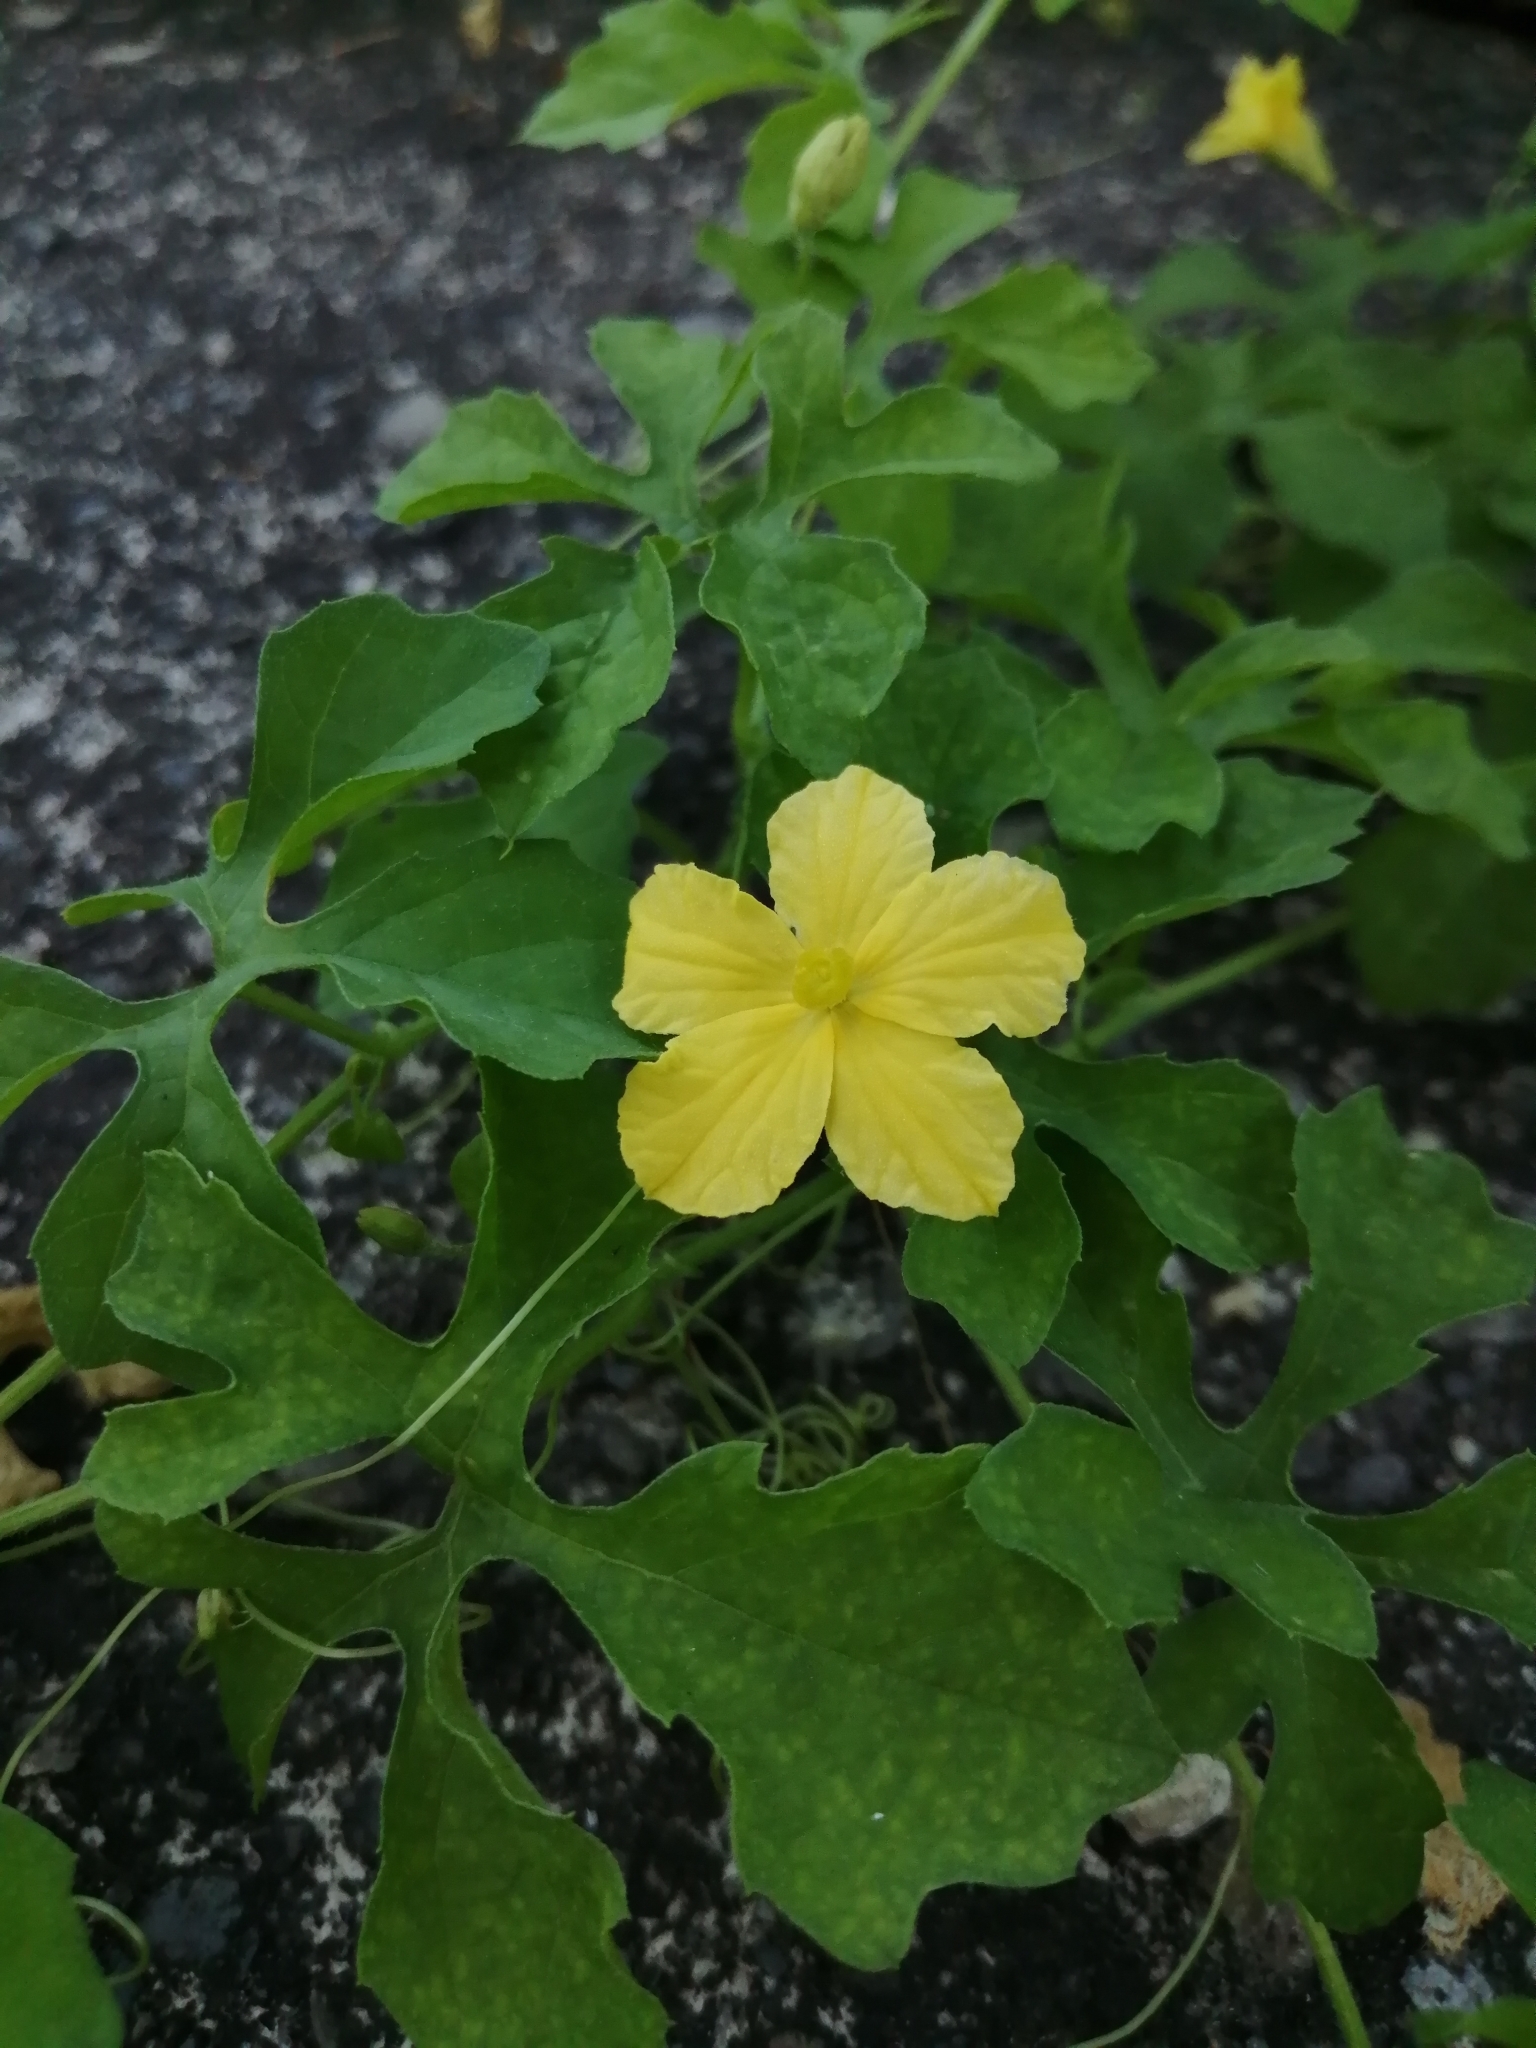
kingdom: Plantae
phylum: Tracheophyta
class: Magnoliopsida
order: Cucurbitales
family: Cucurbitaceae
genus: Momordica
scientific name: Momordica charantia
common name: Balsampear
